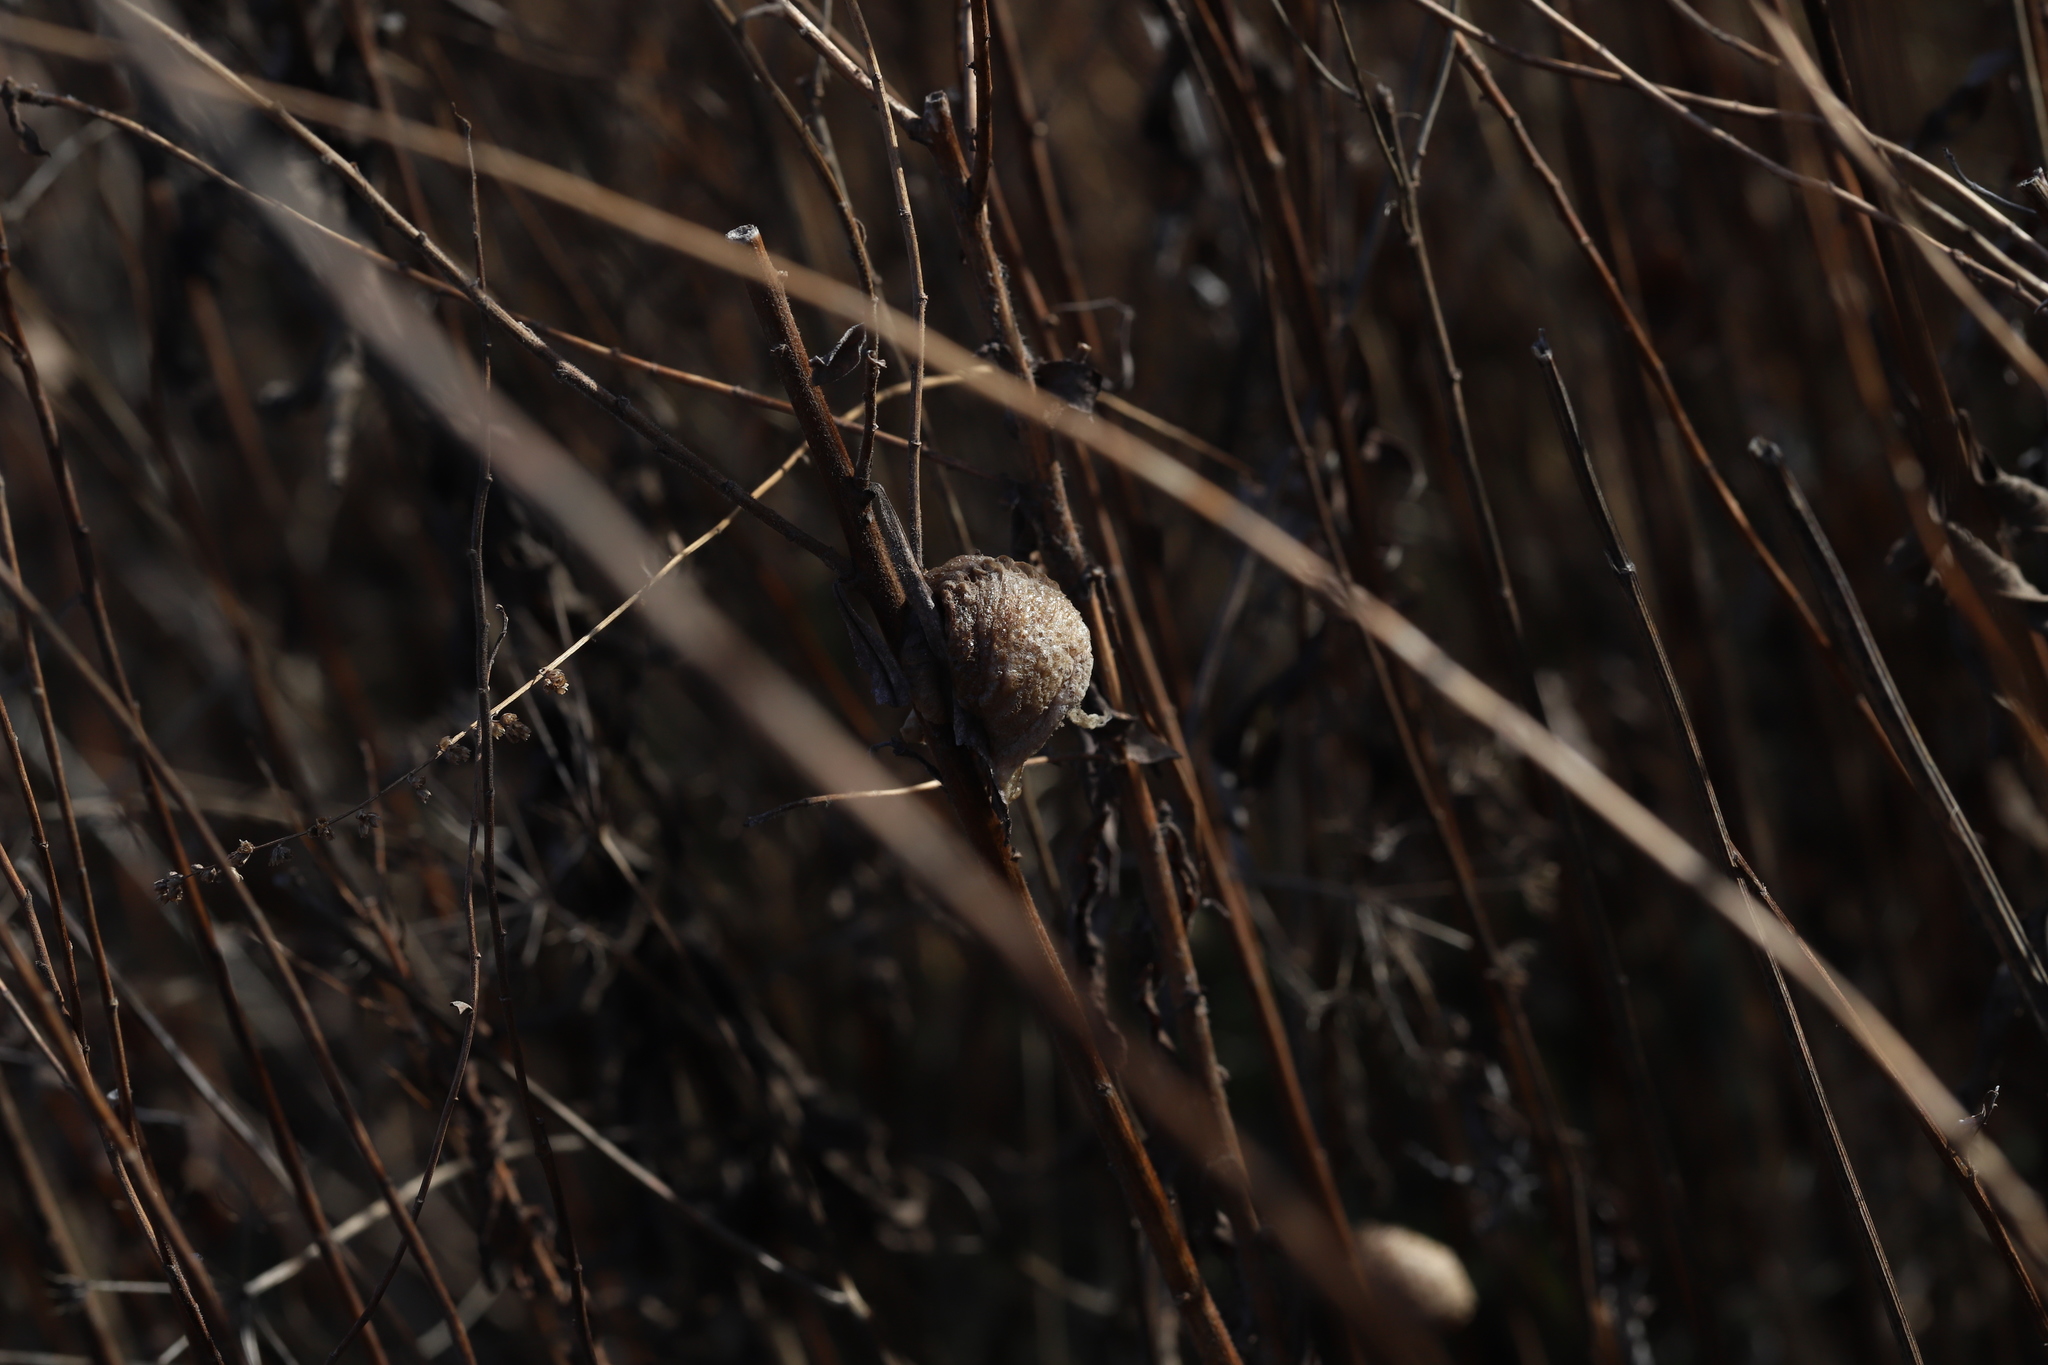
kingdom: Animalia
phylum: Arthropoda
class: Insecta
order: Mantodea
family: Mantidae
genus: Tenodera
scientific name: Tenodera sinensis
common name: Chinese mantis
